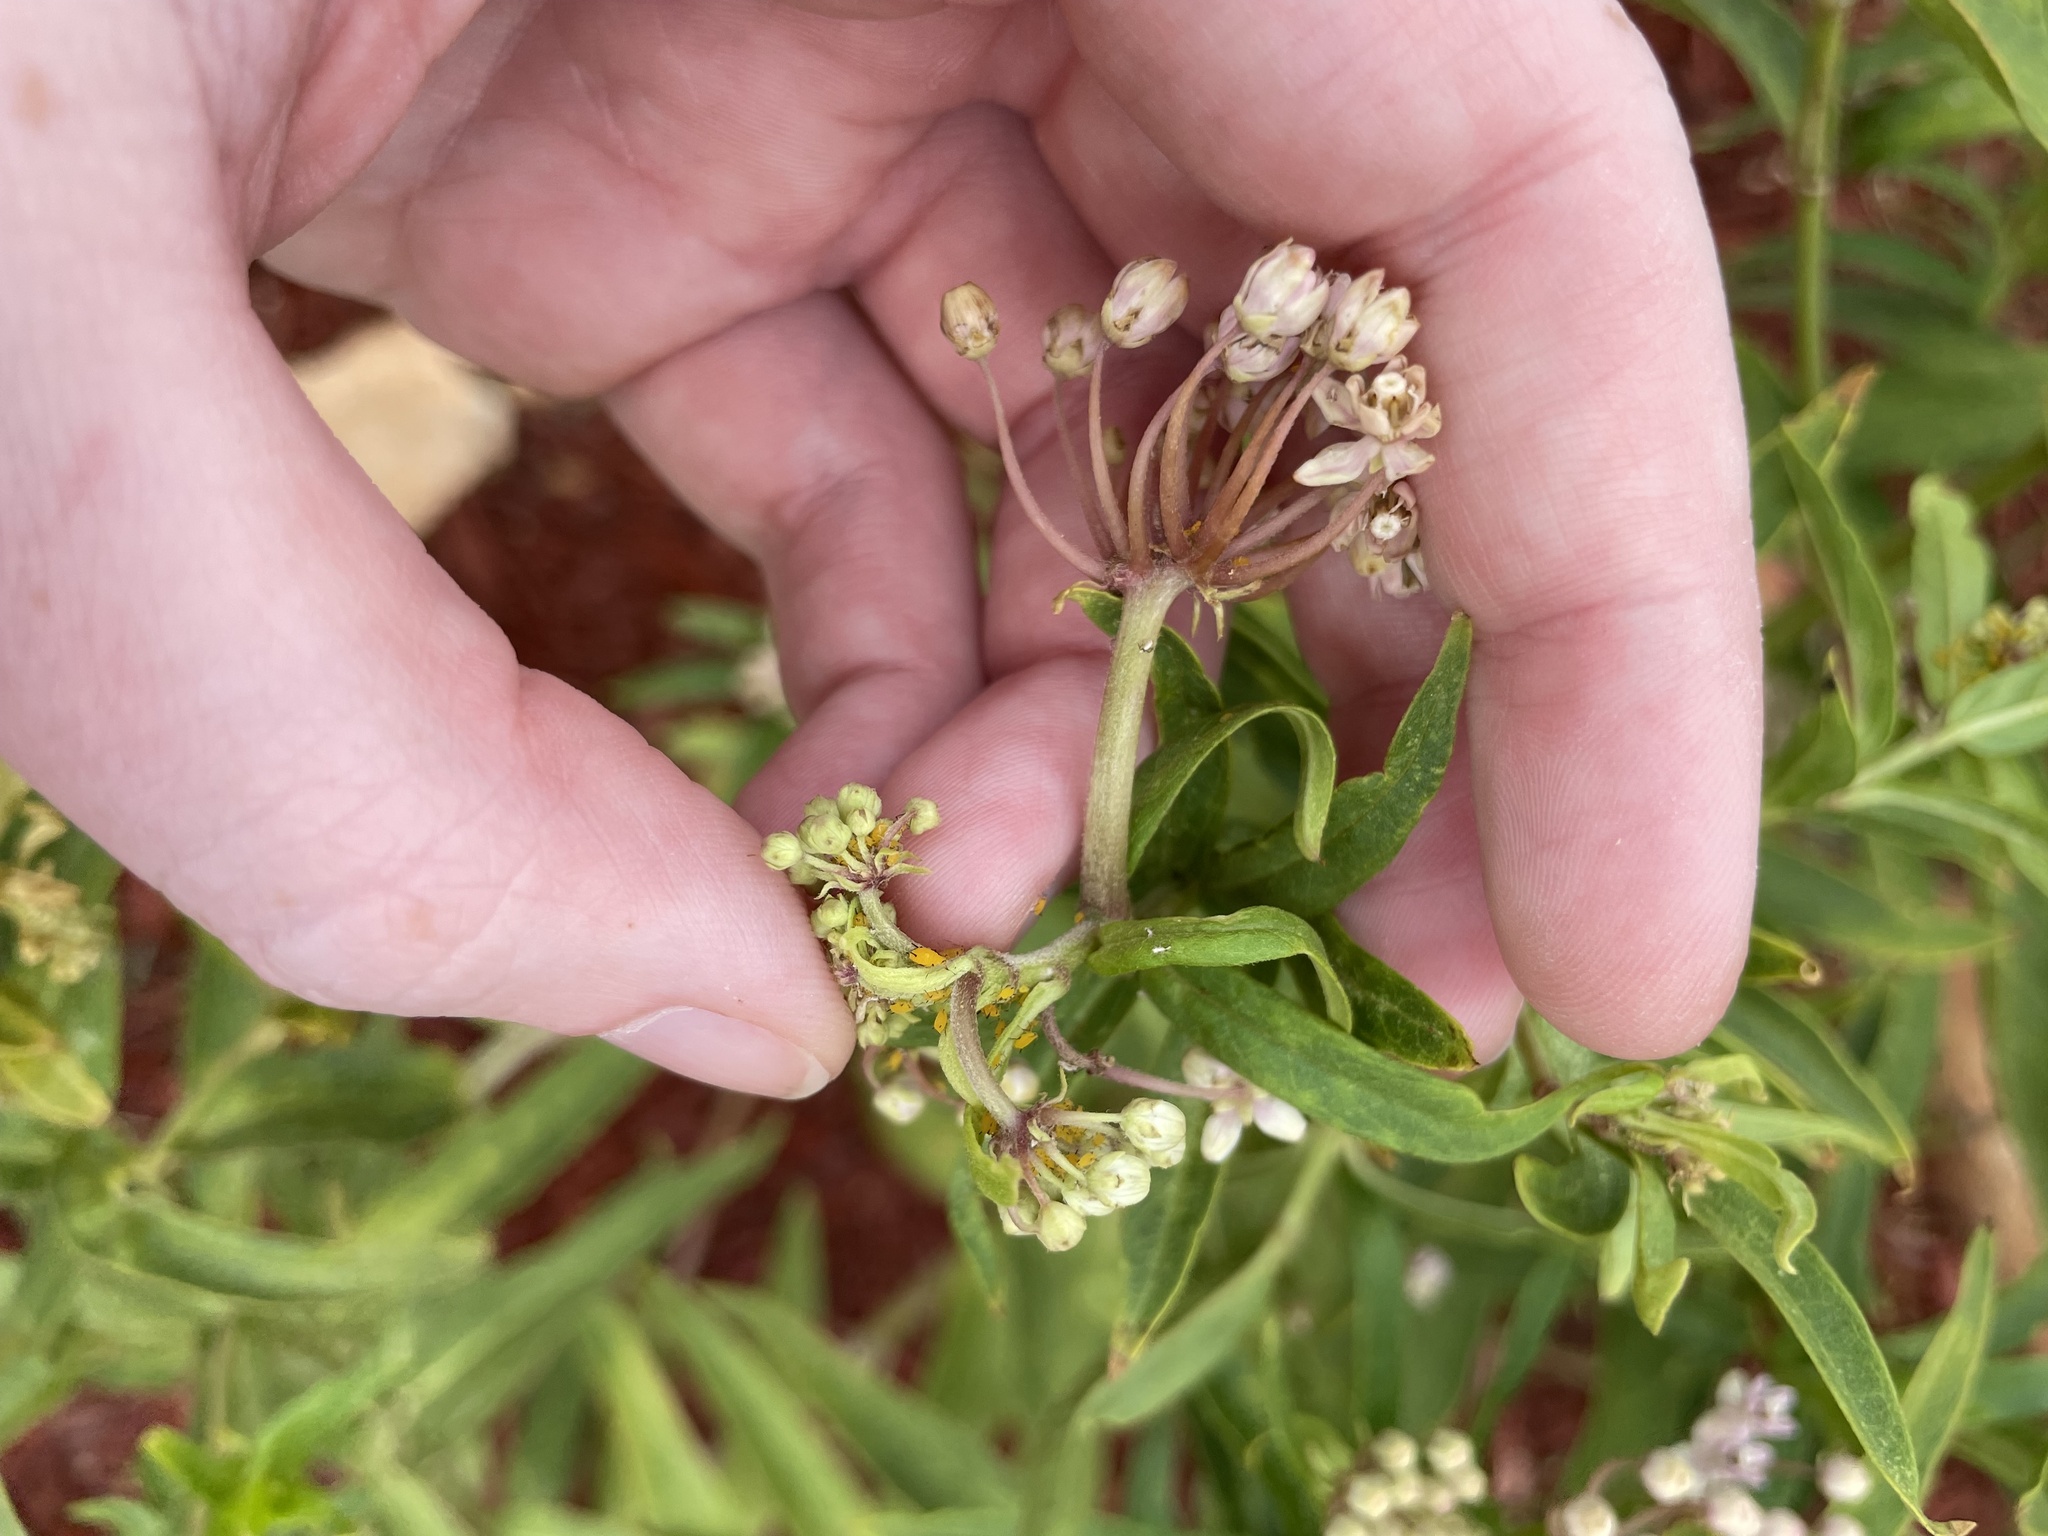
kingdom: Animalia
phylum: Arthropoda
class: Insecta
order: Hemiptera
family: Aphididae
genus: Aphis
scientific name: Aphis nerii
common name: Oleander aphid
